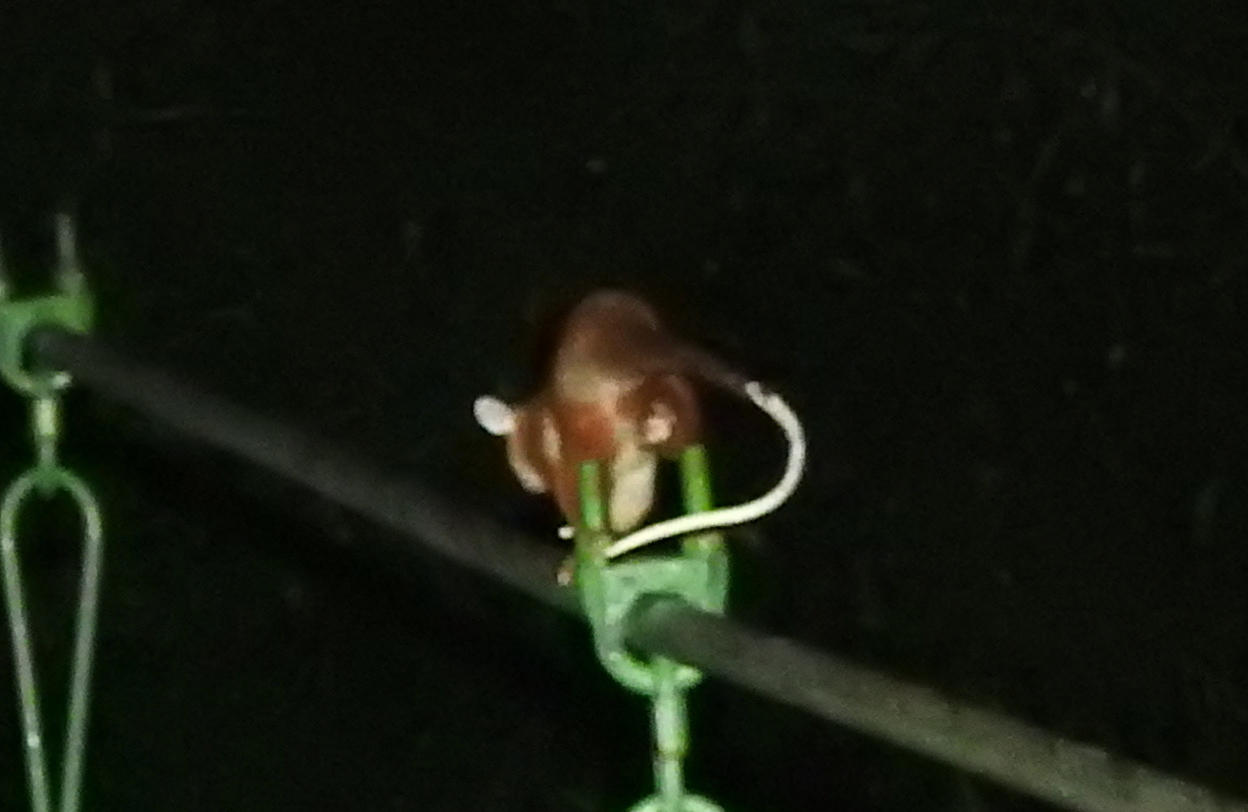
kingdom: Animalia
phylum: Chordata
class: Mammalia
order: Didelphimorphia
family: Didelphidae
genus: Caluromys
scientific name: Caluromys derbianus
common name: Derby's woolly opossum
